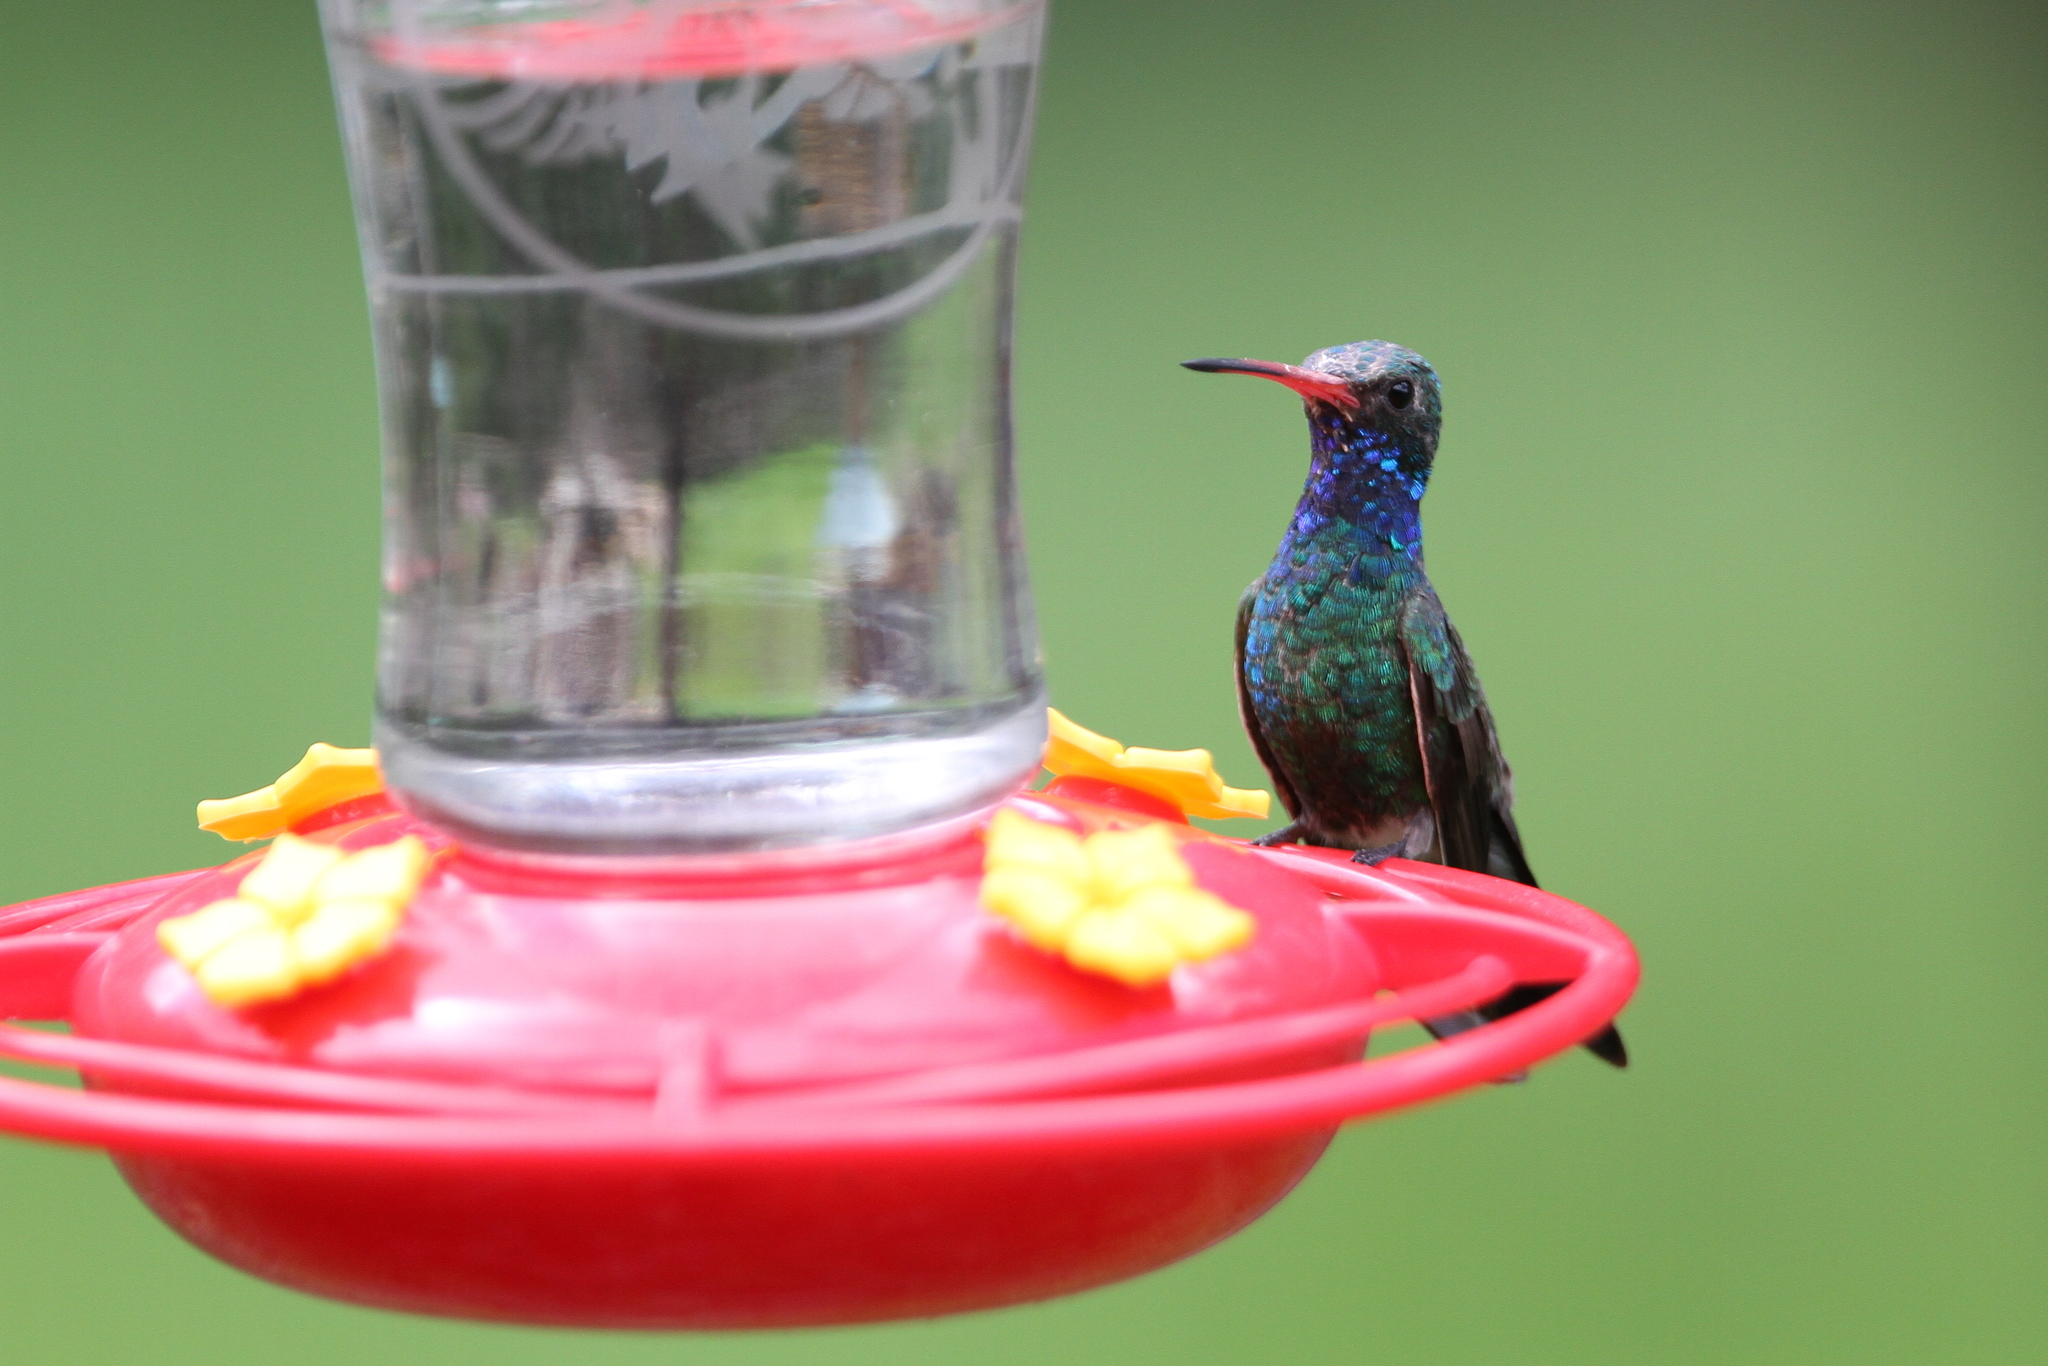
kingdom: Animalia
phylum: Chordata
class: Aves
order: Apodiformes
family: Trochilidae
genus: Cynanthus
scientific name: Cynanthus latirostris
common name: Broad-billed hummingbird
